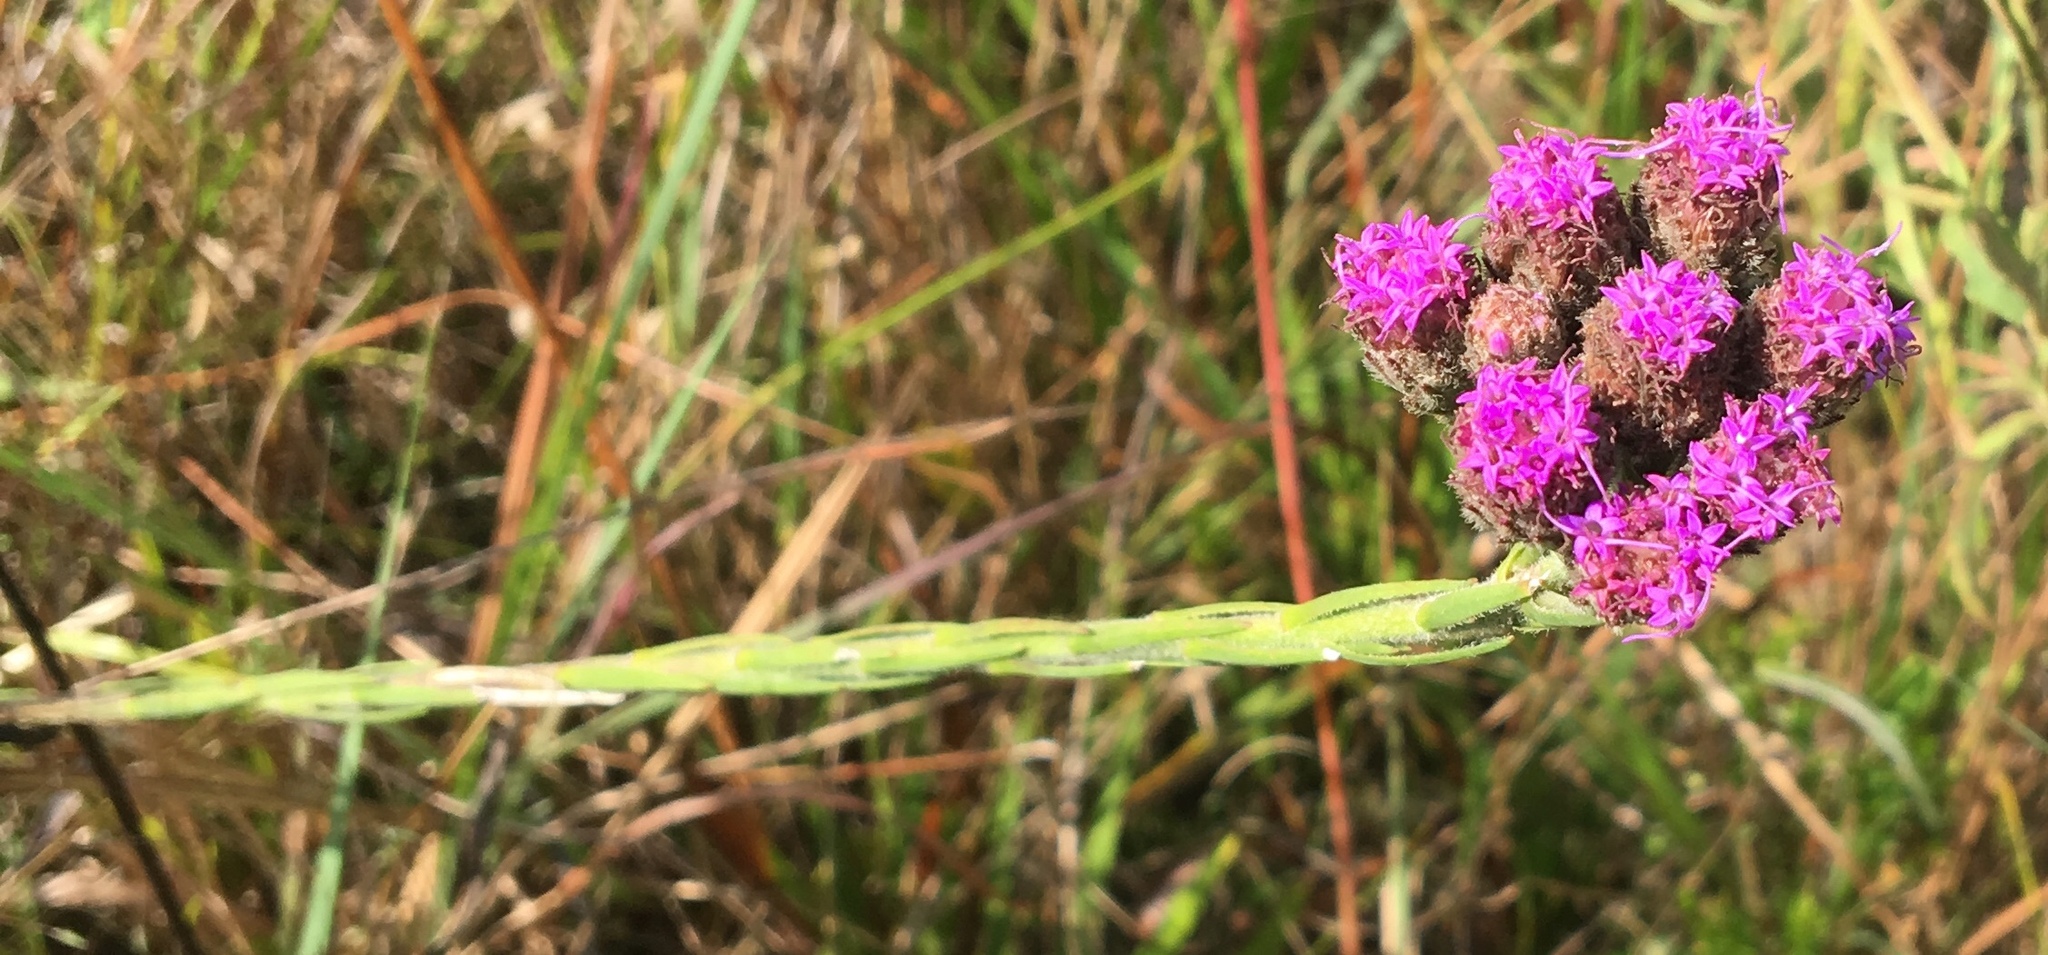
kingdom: Plantae
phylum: Tracheophyta
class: Magnoliopsida
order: Asterales
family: Asteraceae
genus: Carphephorus
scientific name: Carphephorus pseudoliatris
